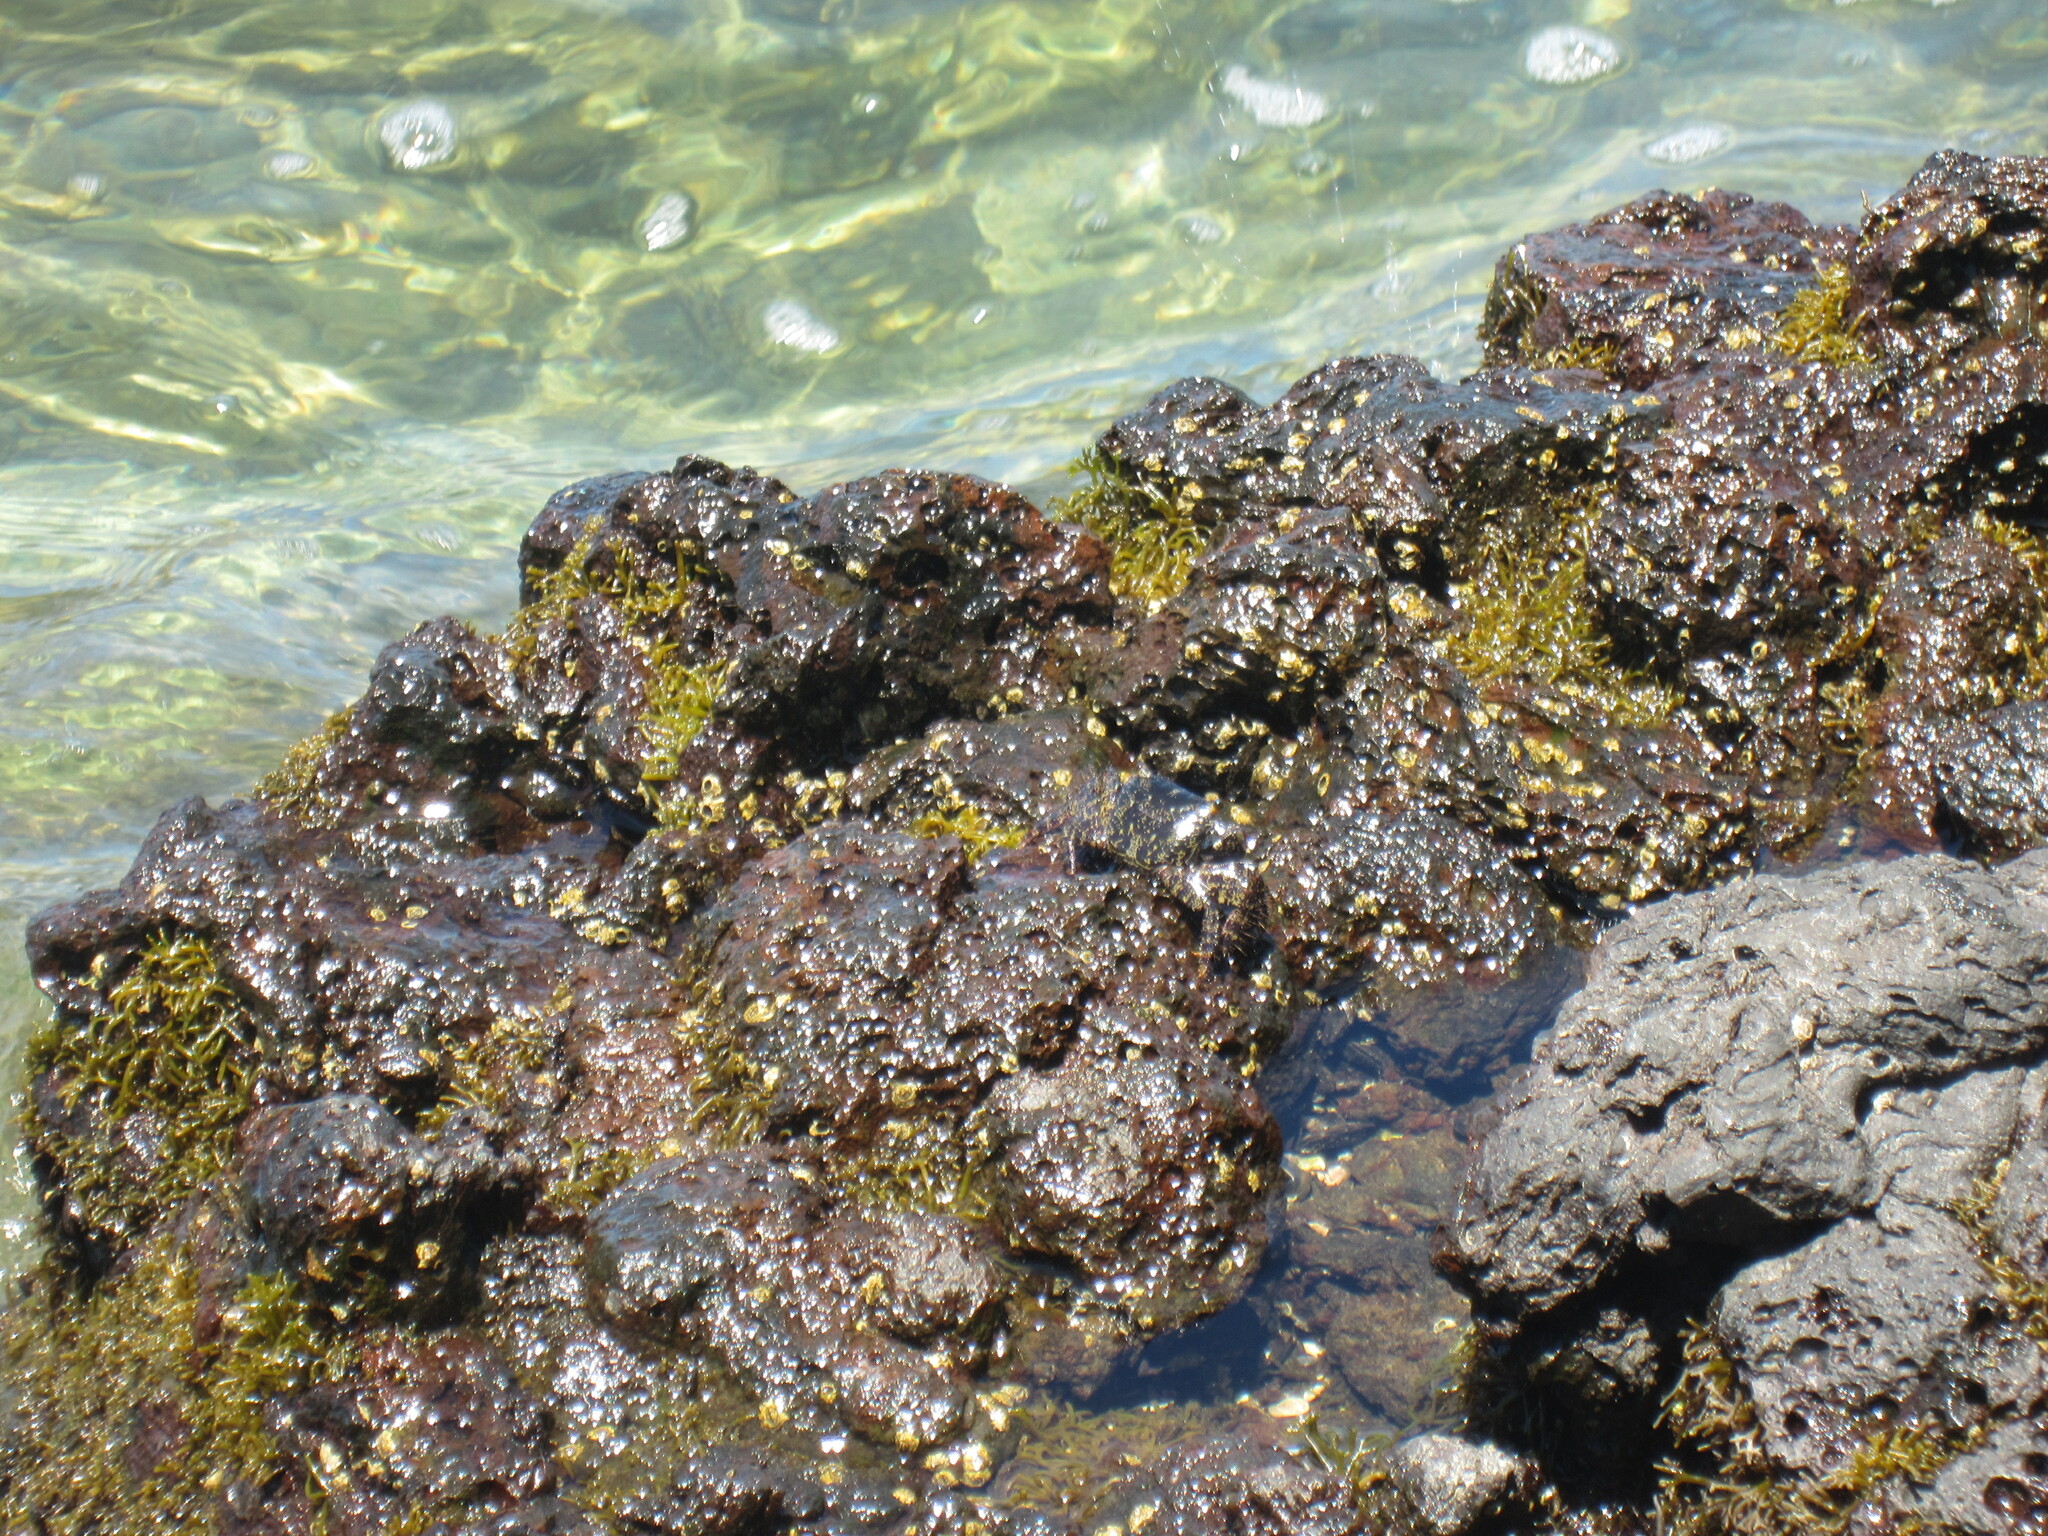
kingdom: Animalia
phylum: Arthropoda
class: Malacostraca
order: Decapoda
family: Grapsidae
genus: Grapsus
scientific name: Grapsus tenuicrustatus
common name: Natal lightfoot crab
